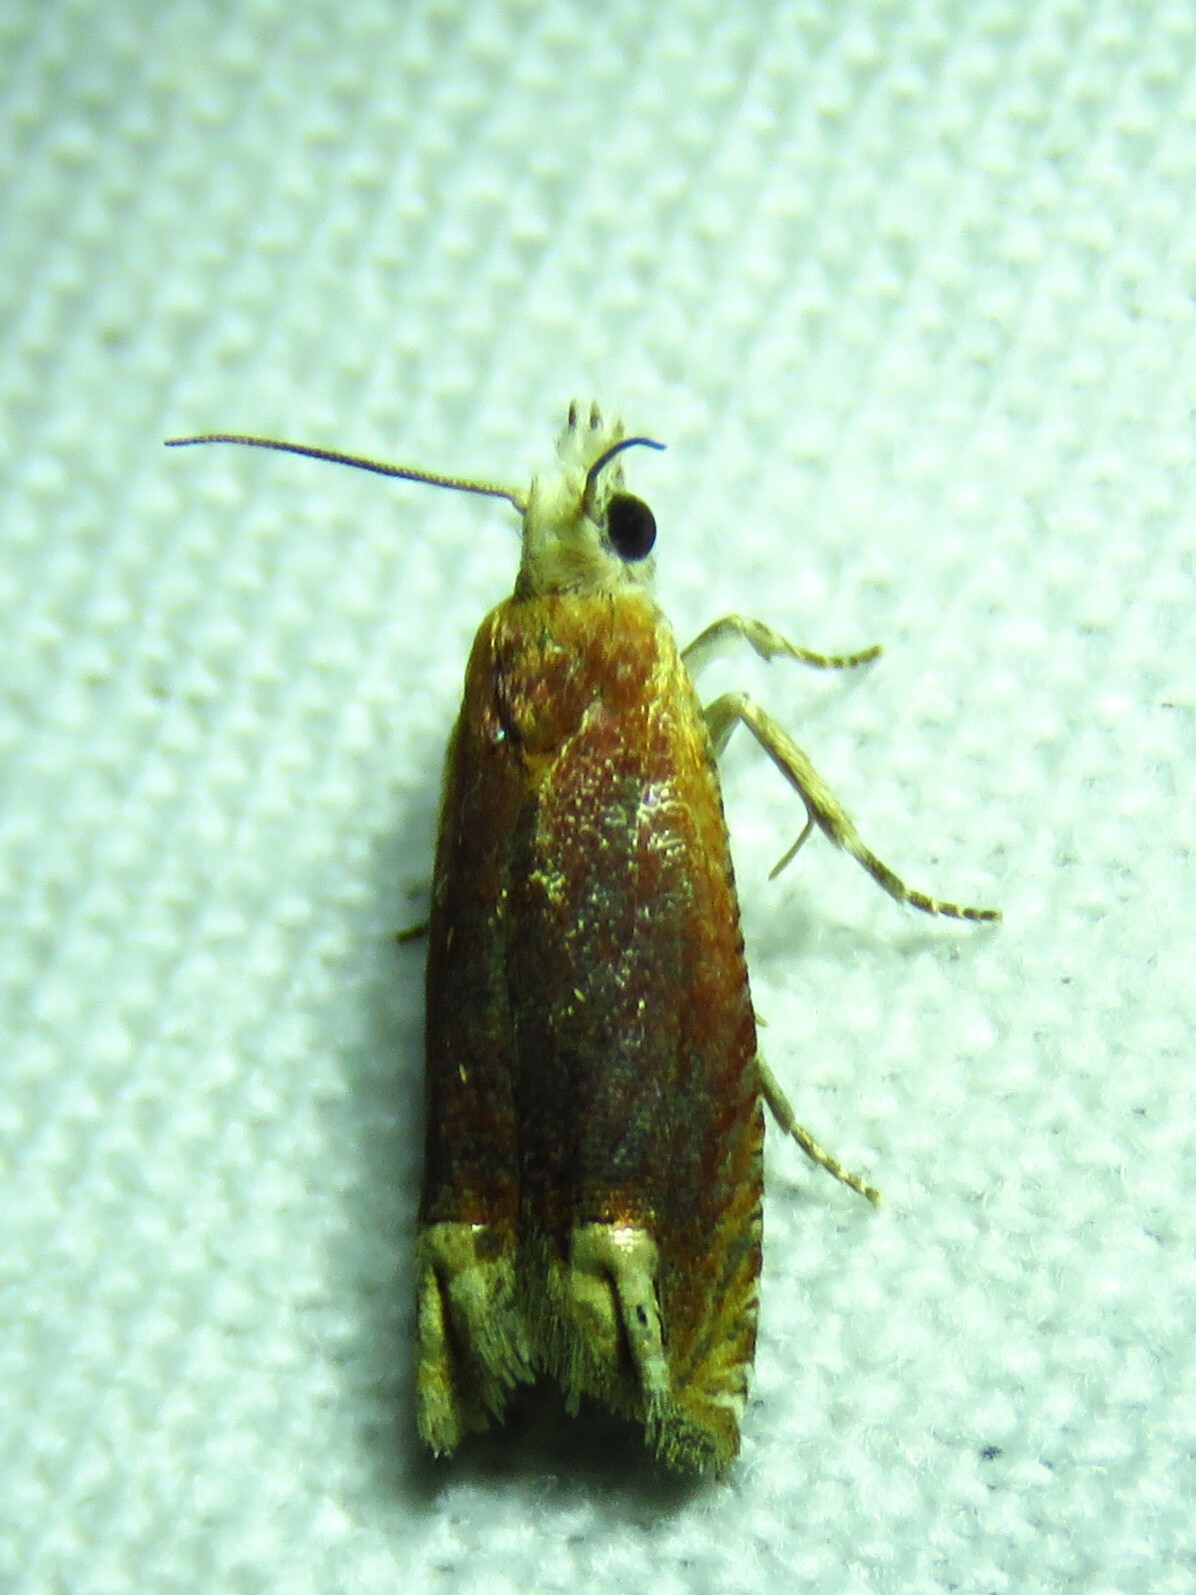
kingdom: Animalia
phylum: Arthropoda
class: Insecta
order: Lepidoptera
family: Tortricidae
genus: Eucosma
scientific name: Eucosma raracana
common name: Reddish eucosma moth
